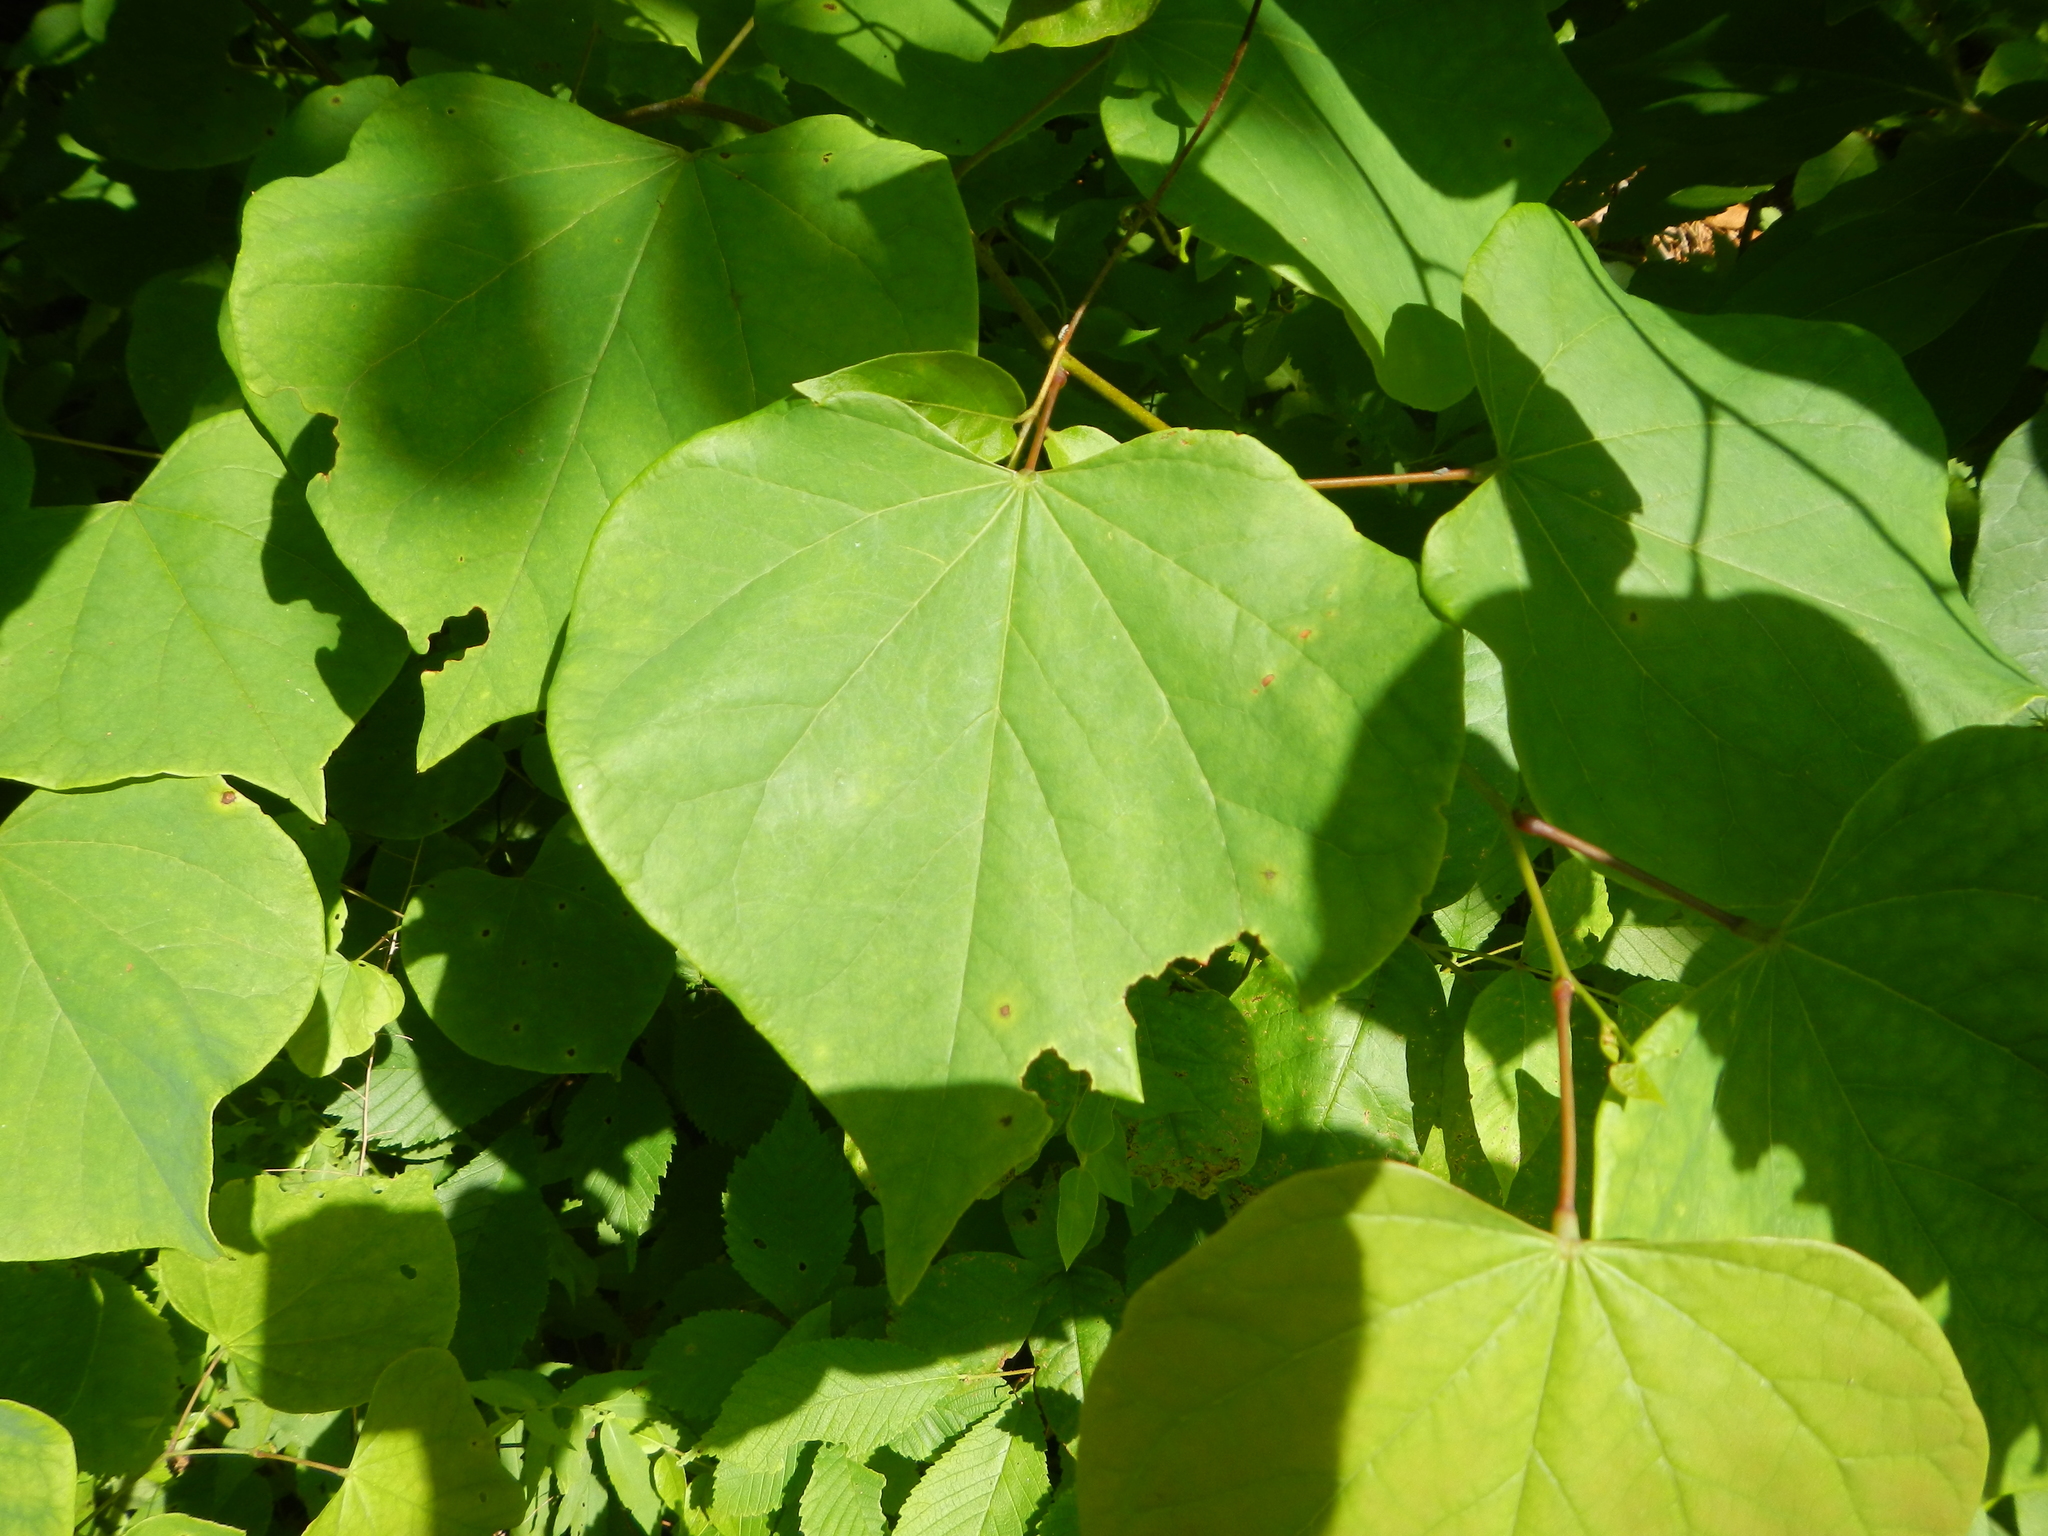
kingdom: Plantae
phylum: Tracheophyta
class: Magnoliopsida
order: Fabales
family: Fabaceae
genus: Cercis
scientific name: Cercis canadensis
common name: Eastern redbud
